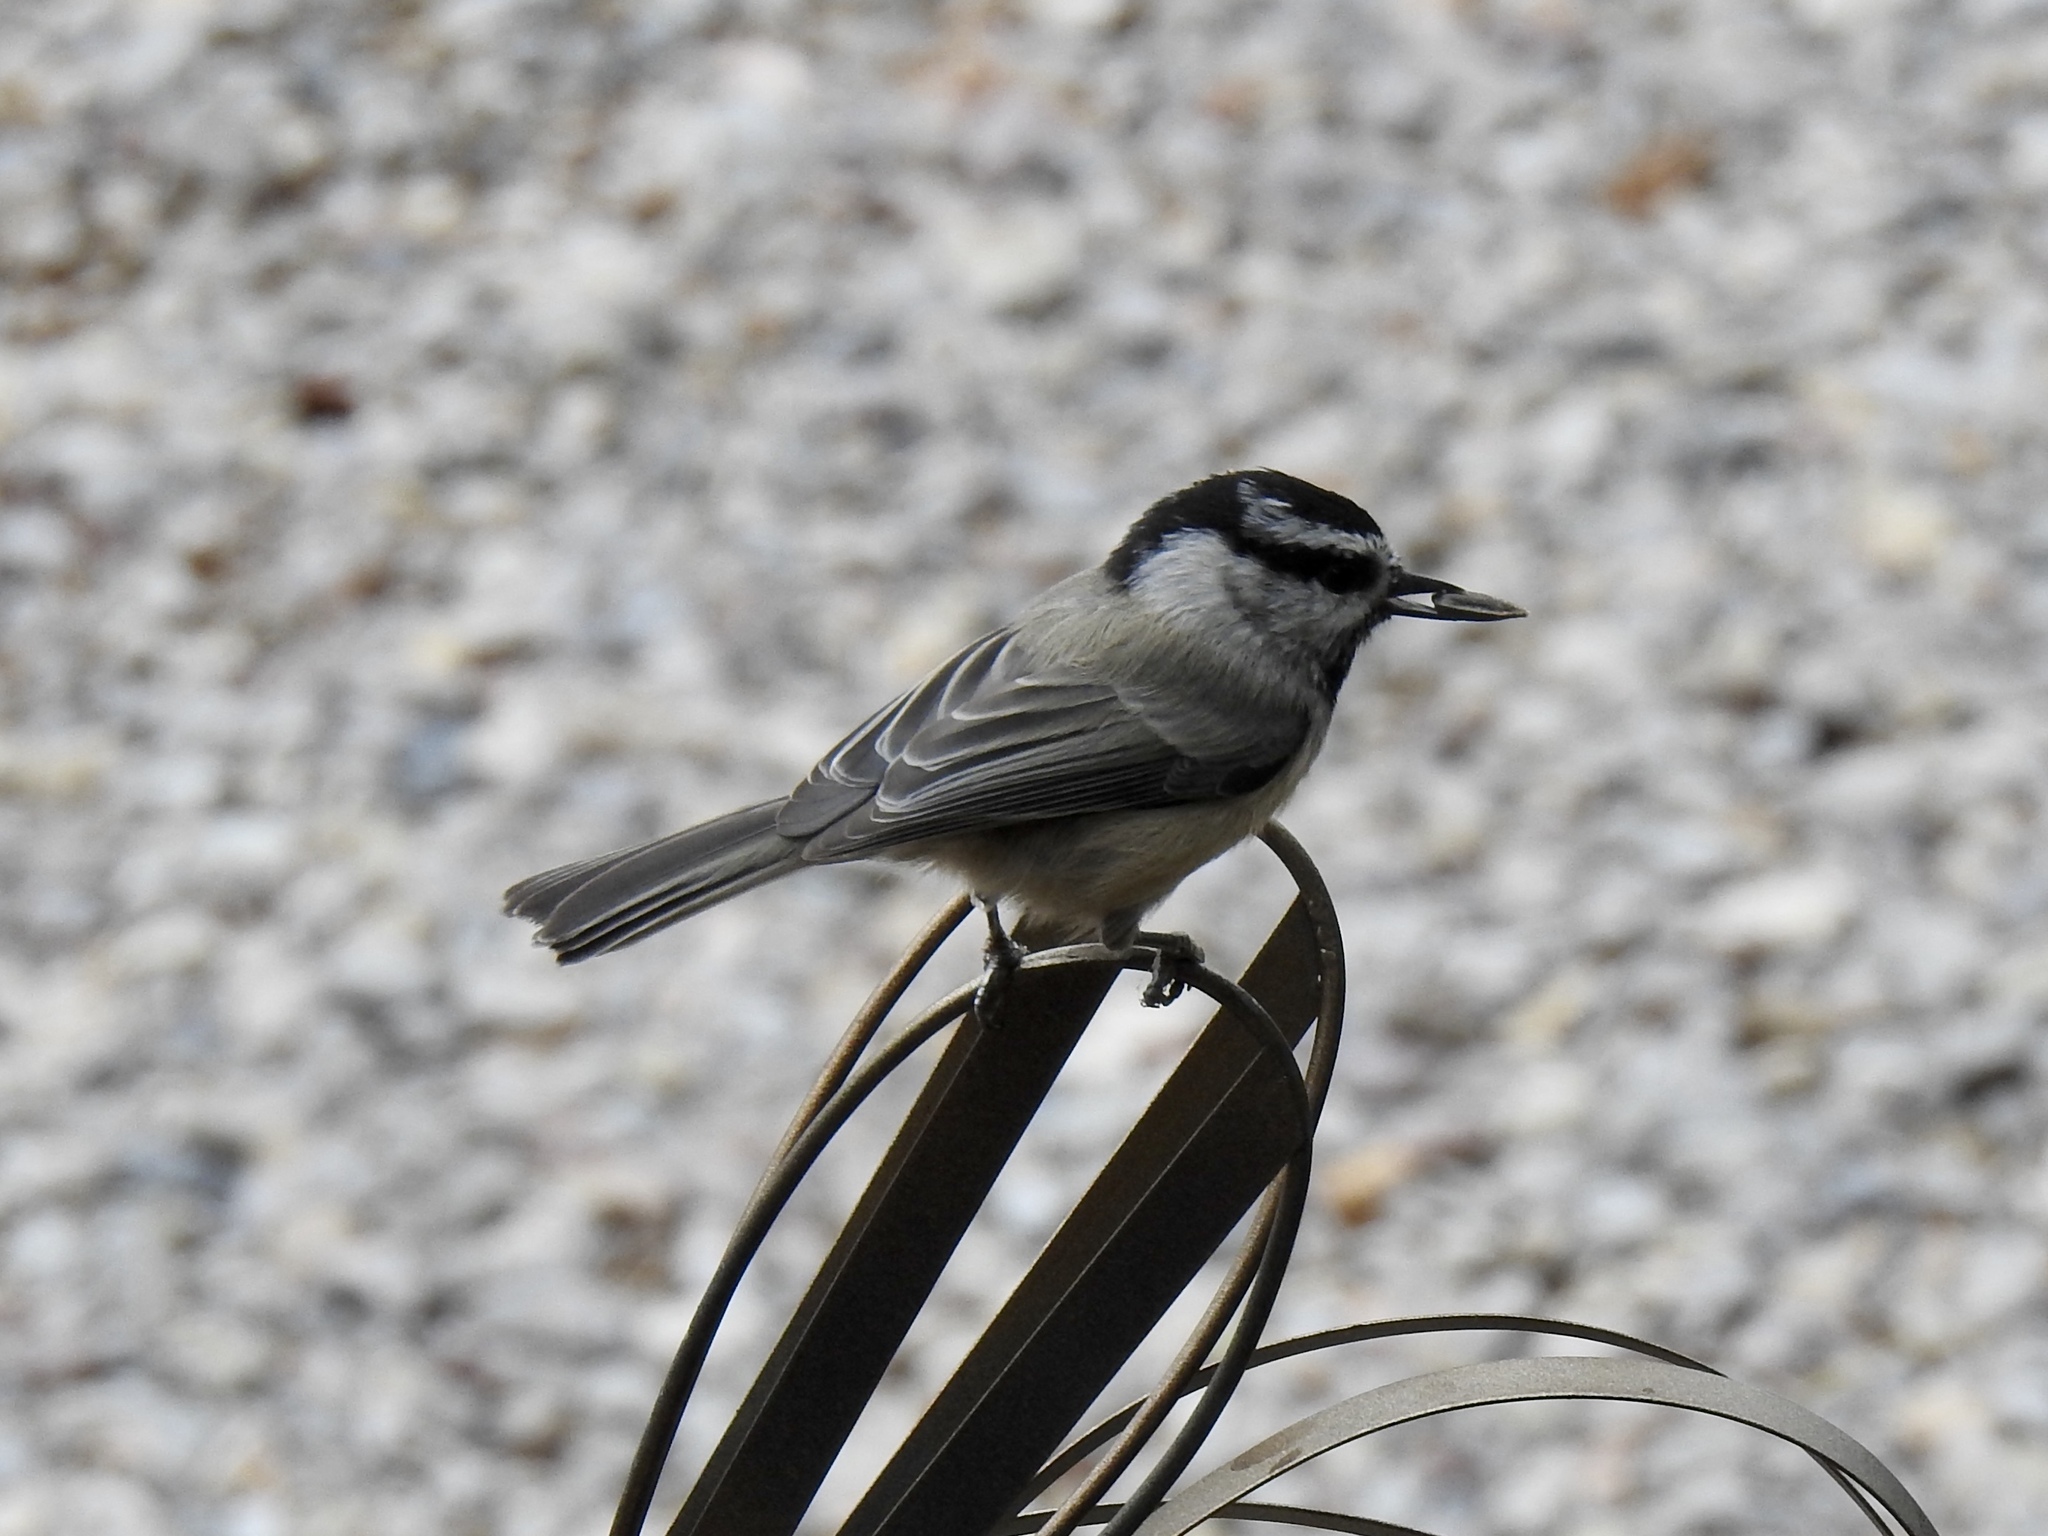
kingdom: Animalia
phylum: Chordata
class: Aves
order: Passeriformes
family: Paridae
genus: Poecile
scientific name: Poecile gambeli
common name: Mountain chickadee
